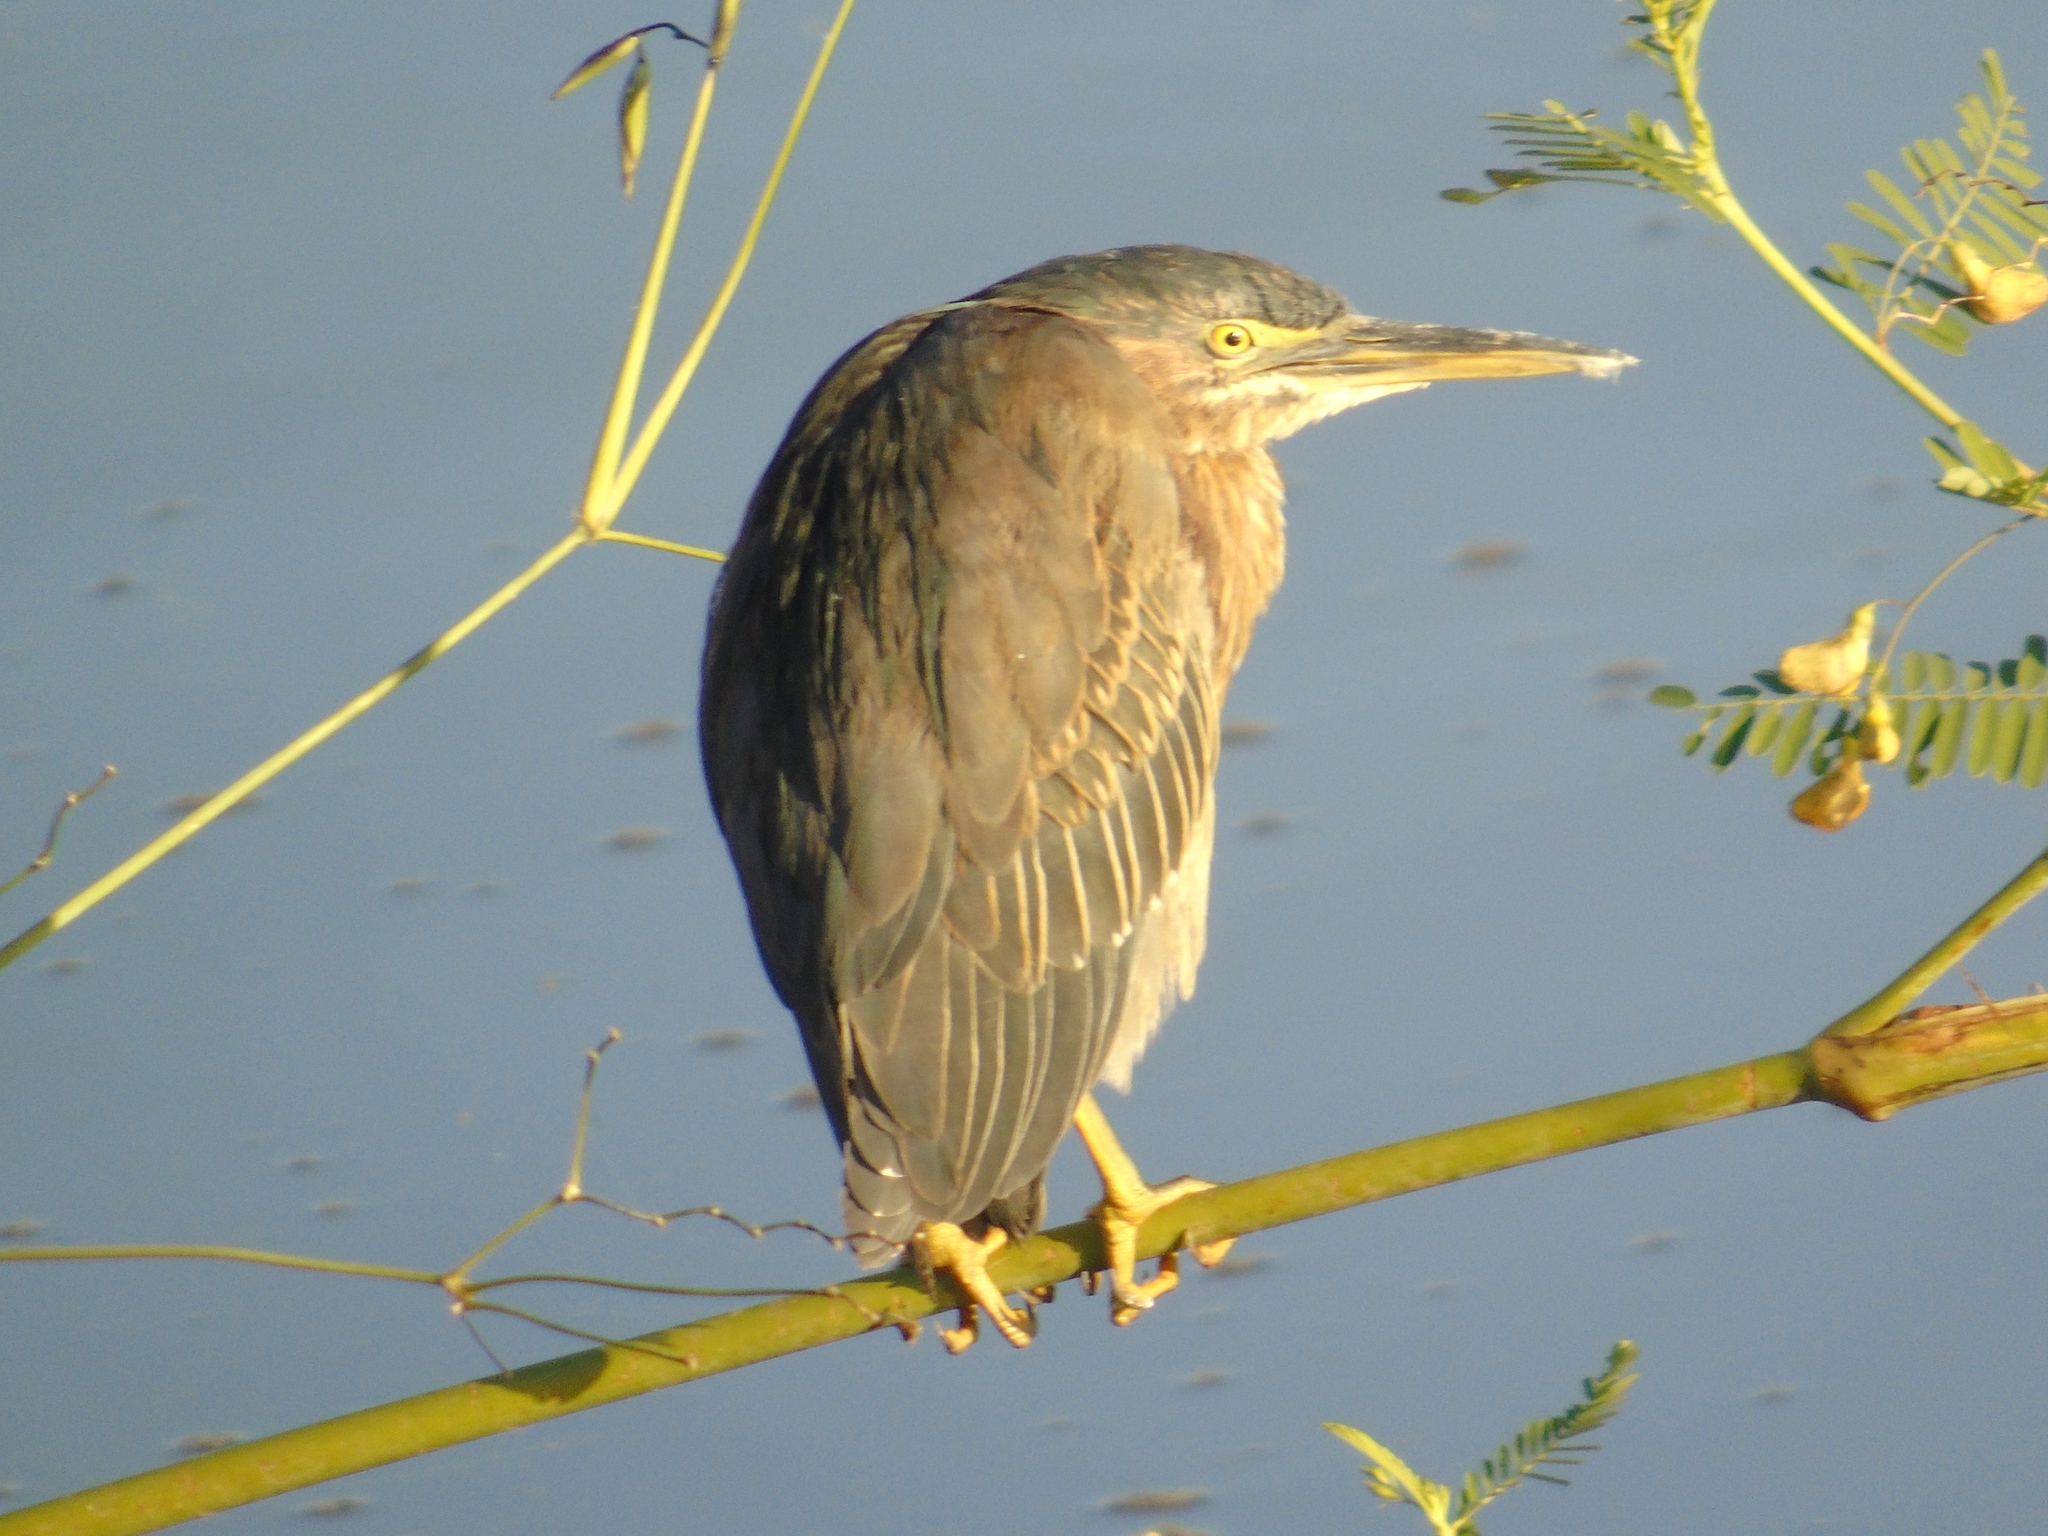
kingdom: Animalia
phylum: Chordata
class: Aves
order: Pelecaniformes
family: Ardeidae
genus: Butorides
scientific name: Butorides virescens
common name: Green heron
